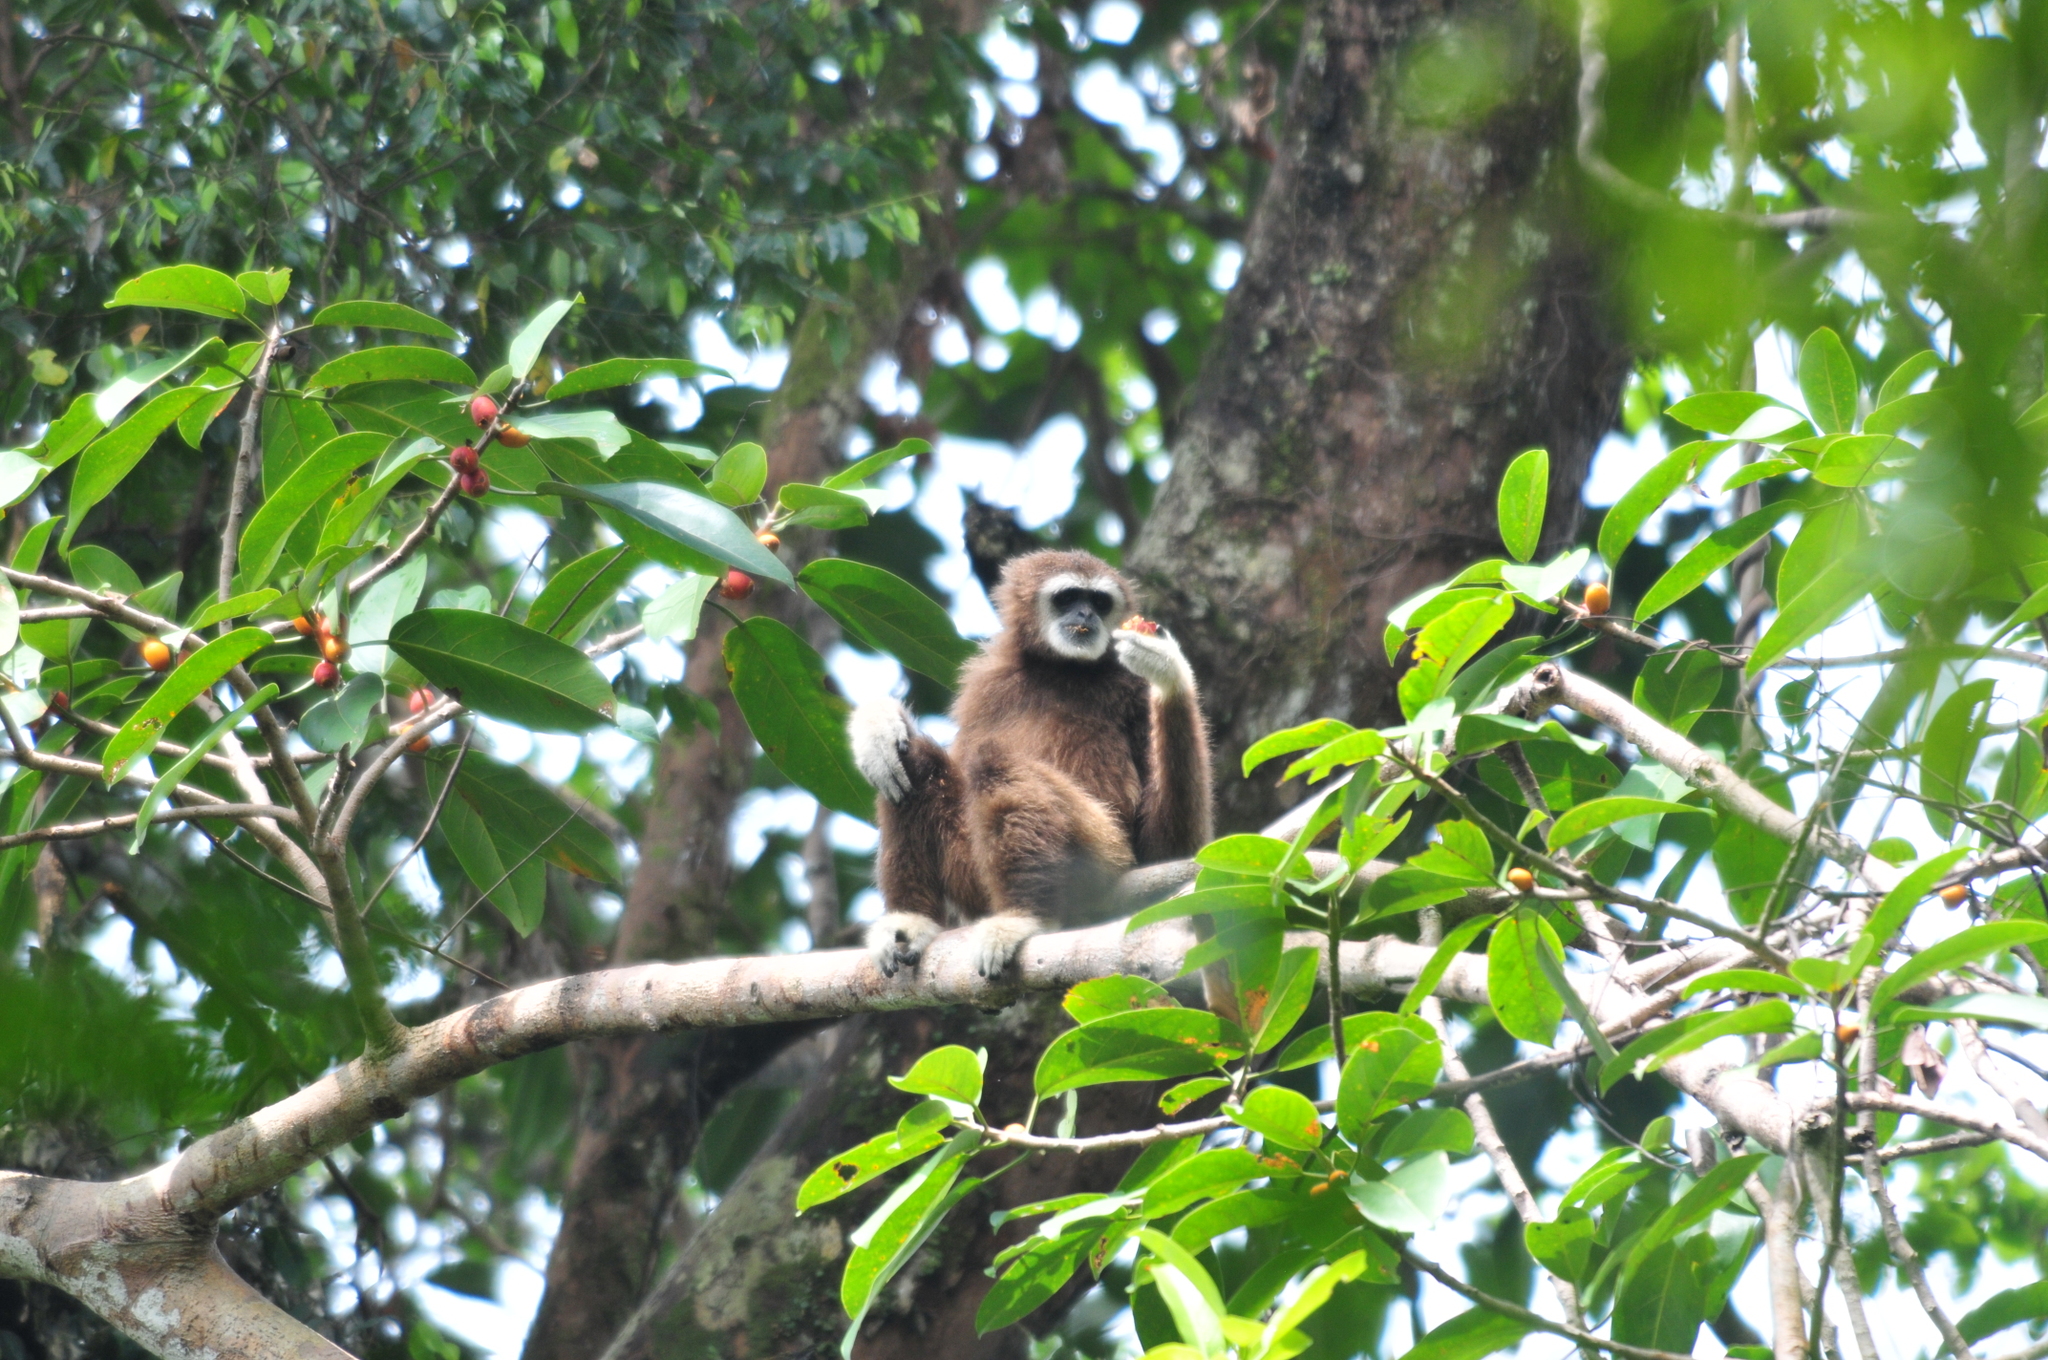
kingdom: Animalia
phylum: Chordata
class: Mammalia
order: Primates
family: Hylobatidae
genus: Hylobates
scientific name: Hylobates lar
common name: Lar gibbon
